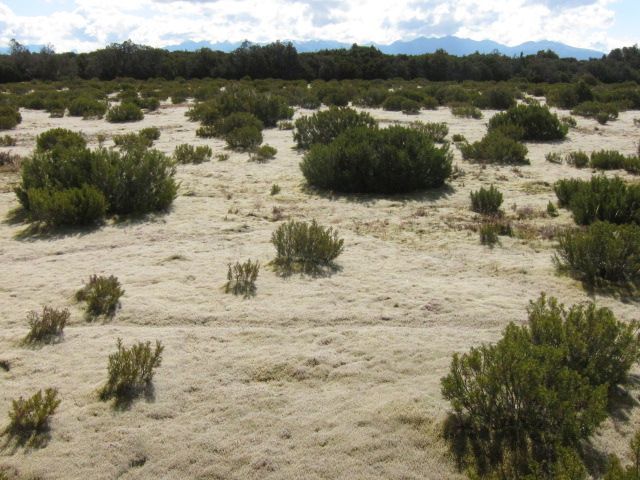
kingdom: Plantae
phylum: Tracheophyta
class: Pinopsida
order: Pinales
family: Podocarpaceae
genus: Halocarpus
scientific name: Halocarpus bidwillii
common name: Bog pine
